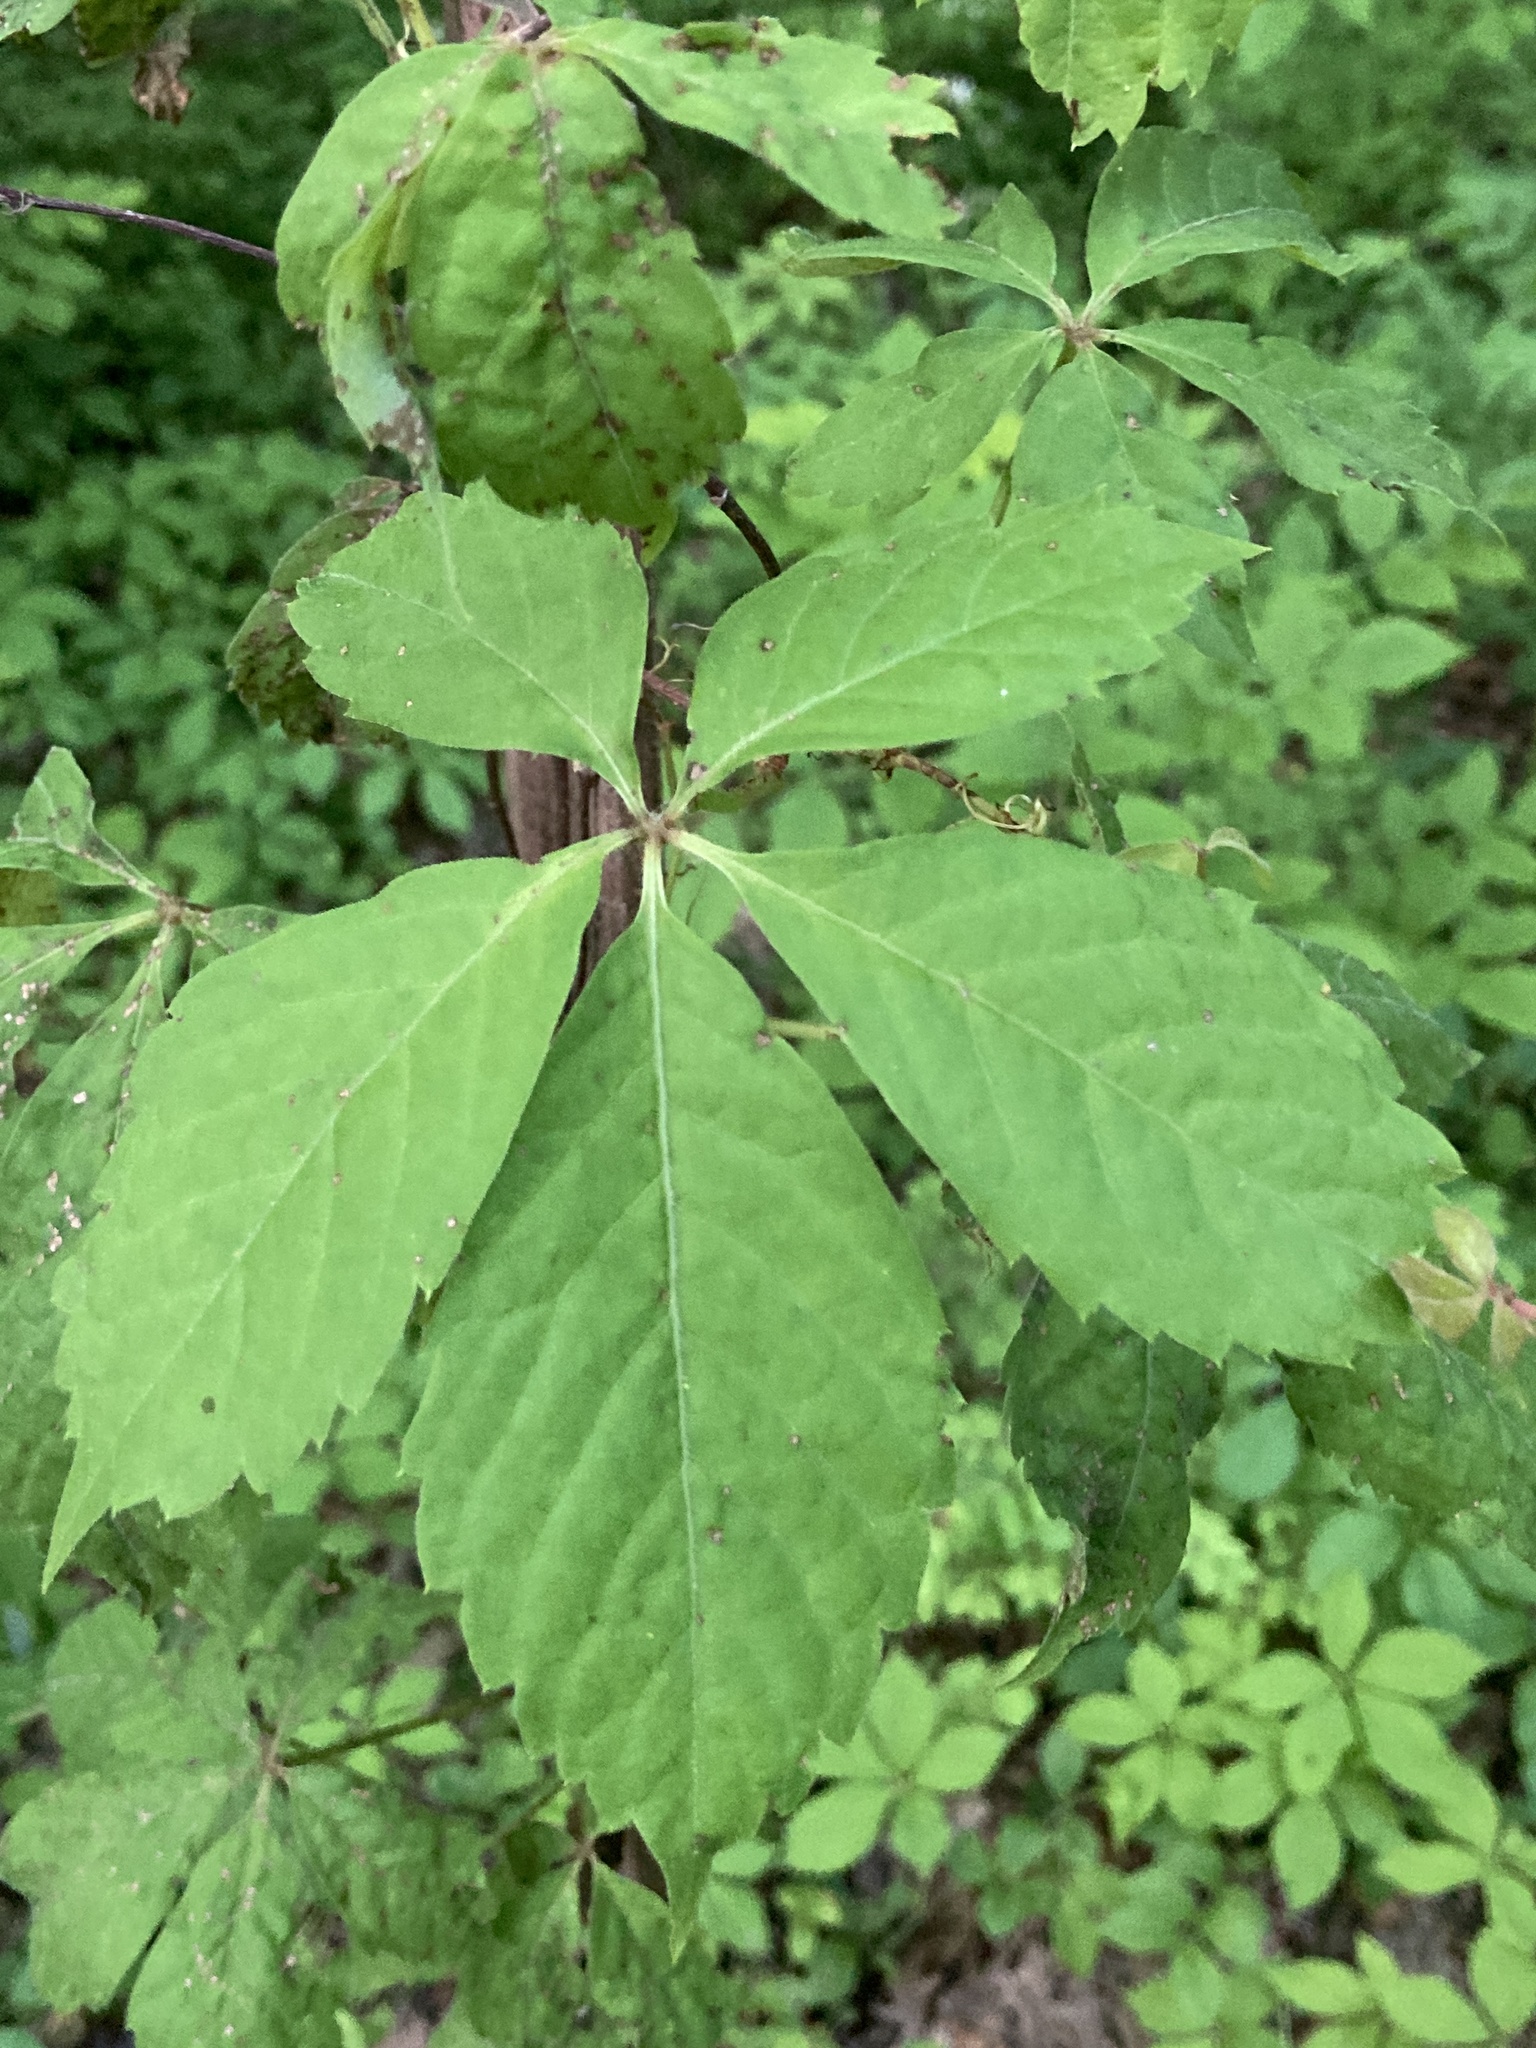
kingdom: Plantae
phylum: Tracheophyta
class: Magnoliopsida
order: Vitales
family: Vitaceae
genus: Parthenocissus
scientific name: Parthenocissus quinquefolia
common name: Virginia-creeper
